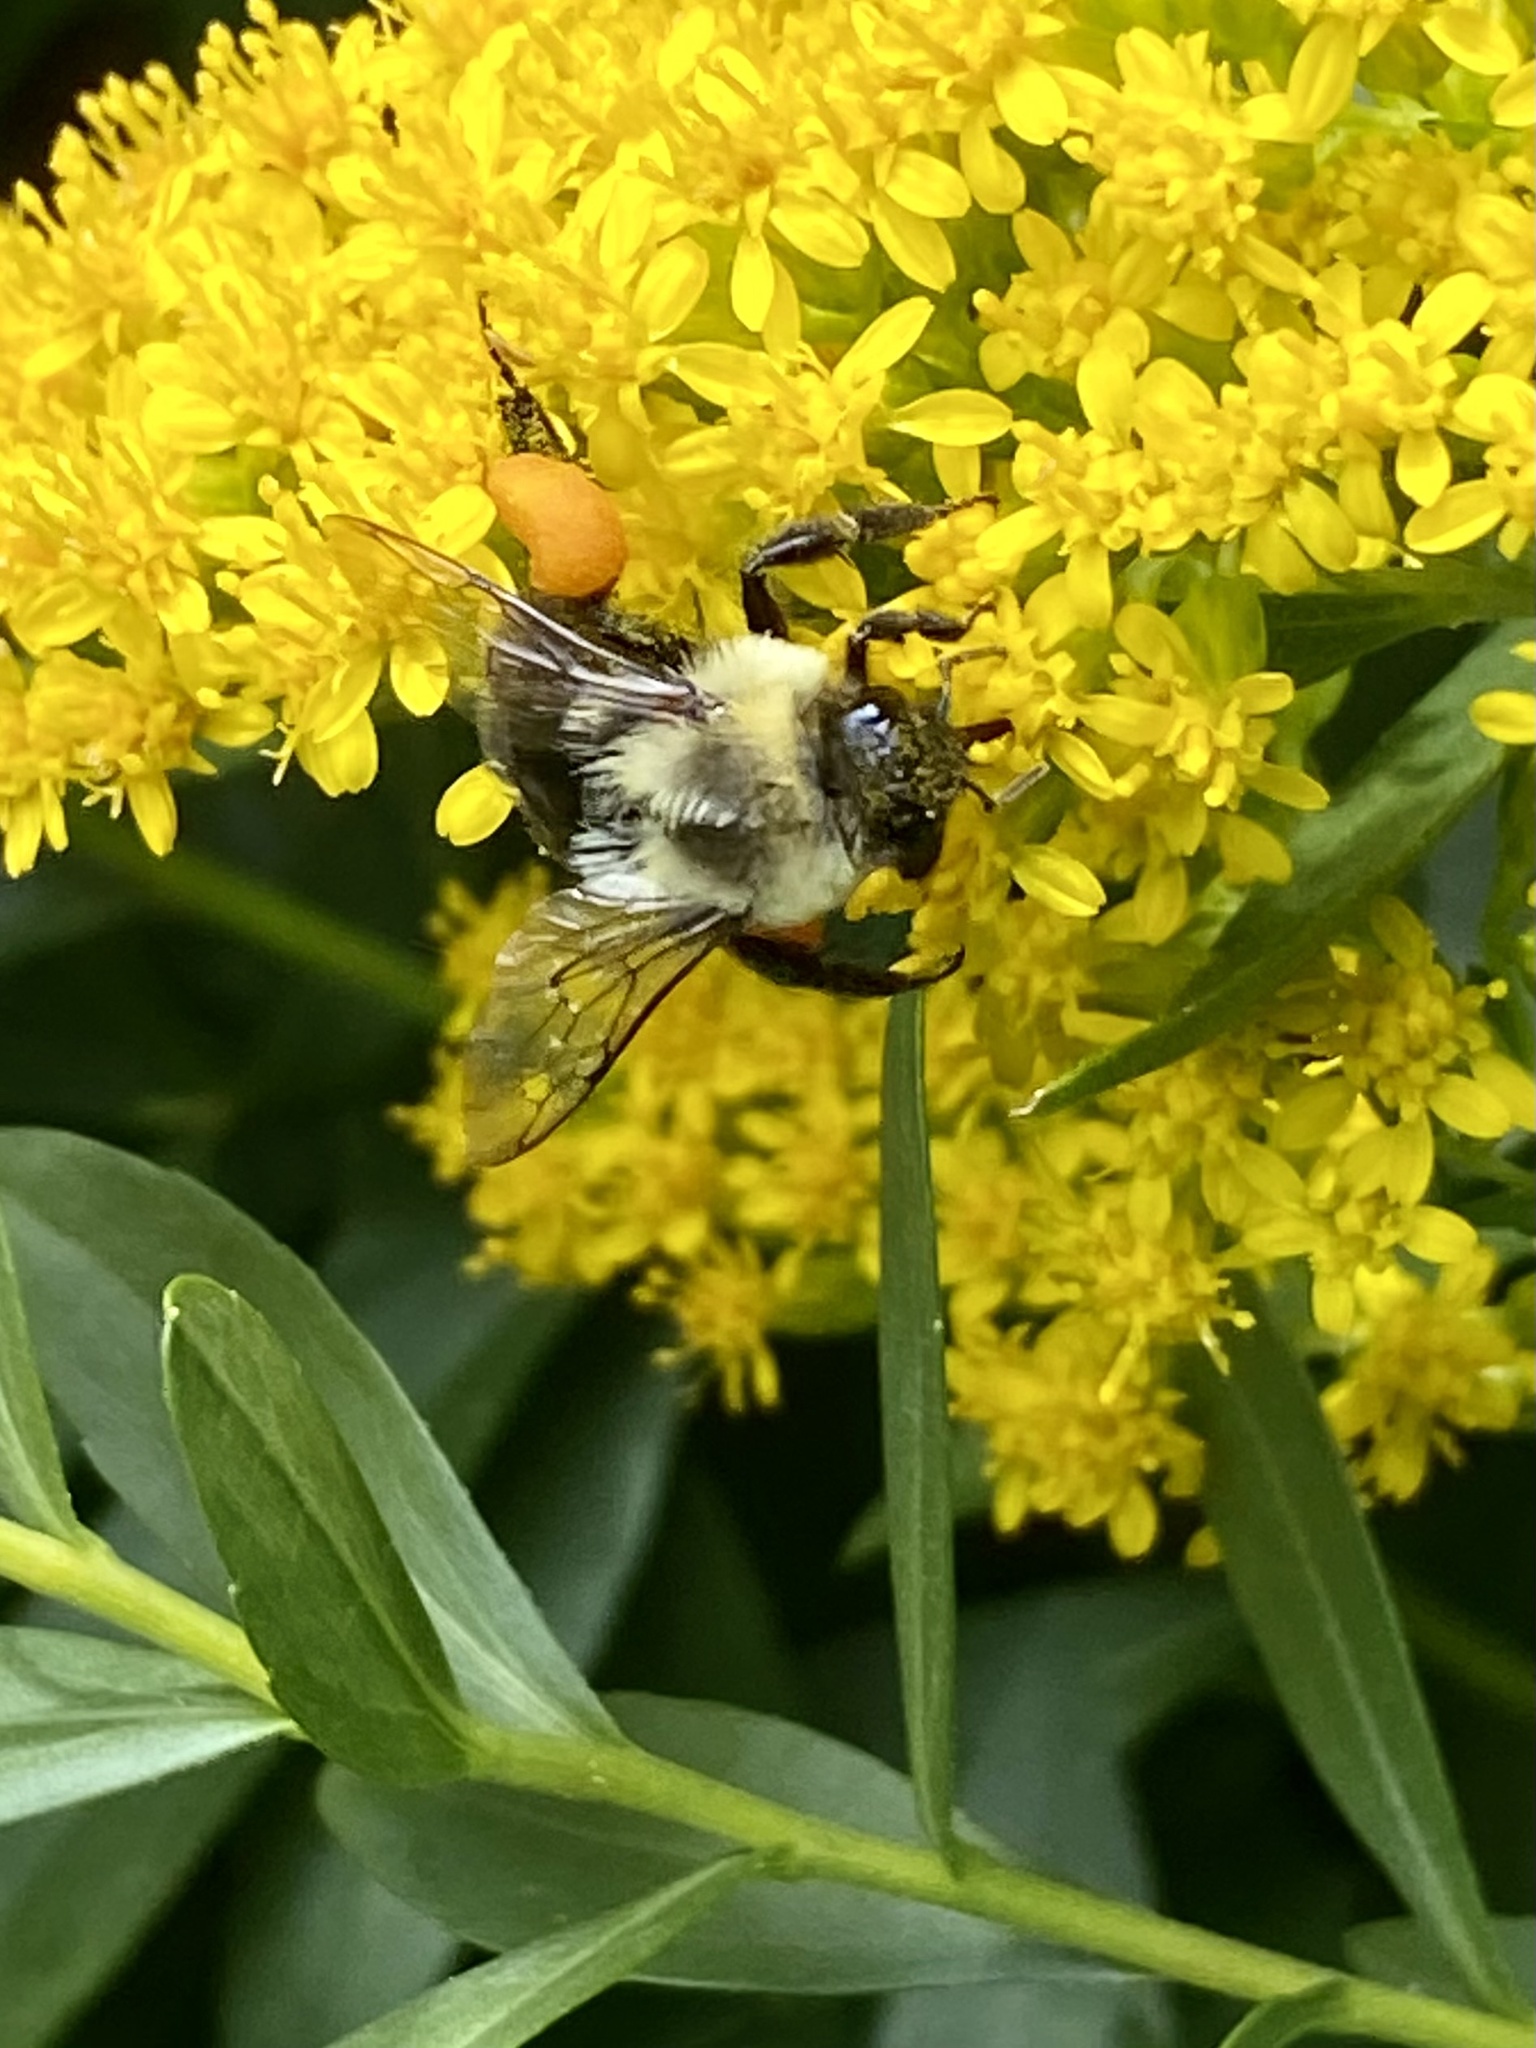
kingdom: Animalia
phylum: Arthropoda
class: Insecta
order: Hymenoptera
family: Apidae
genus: Bombus
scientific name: Bombus impatiens
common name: Common eastern bumble bee
